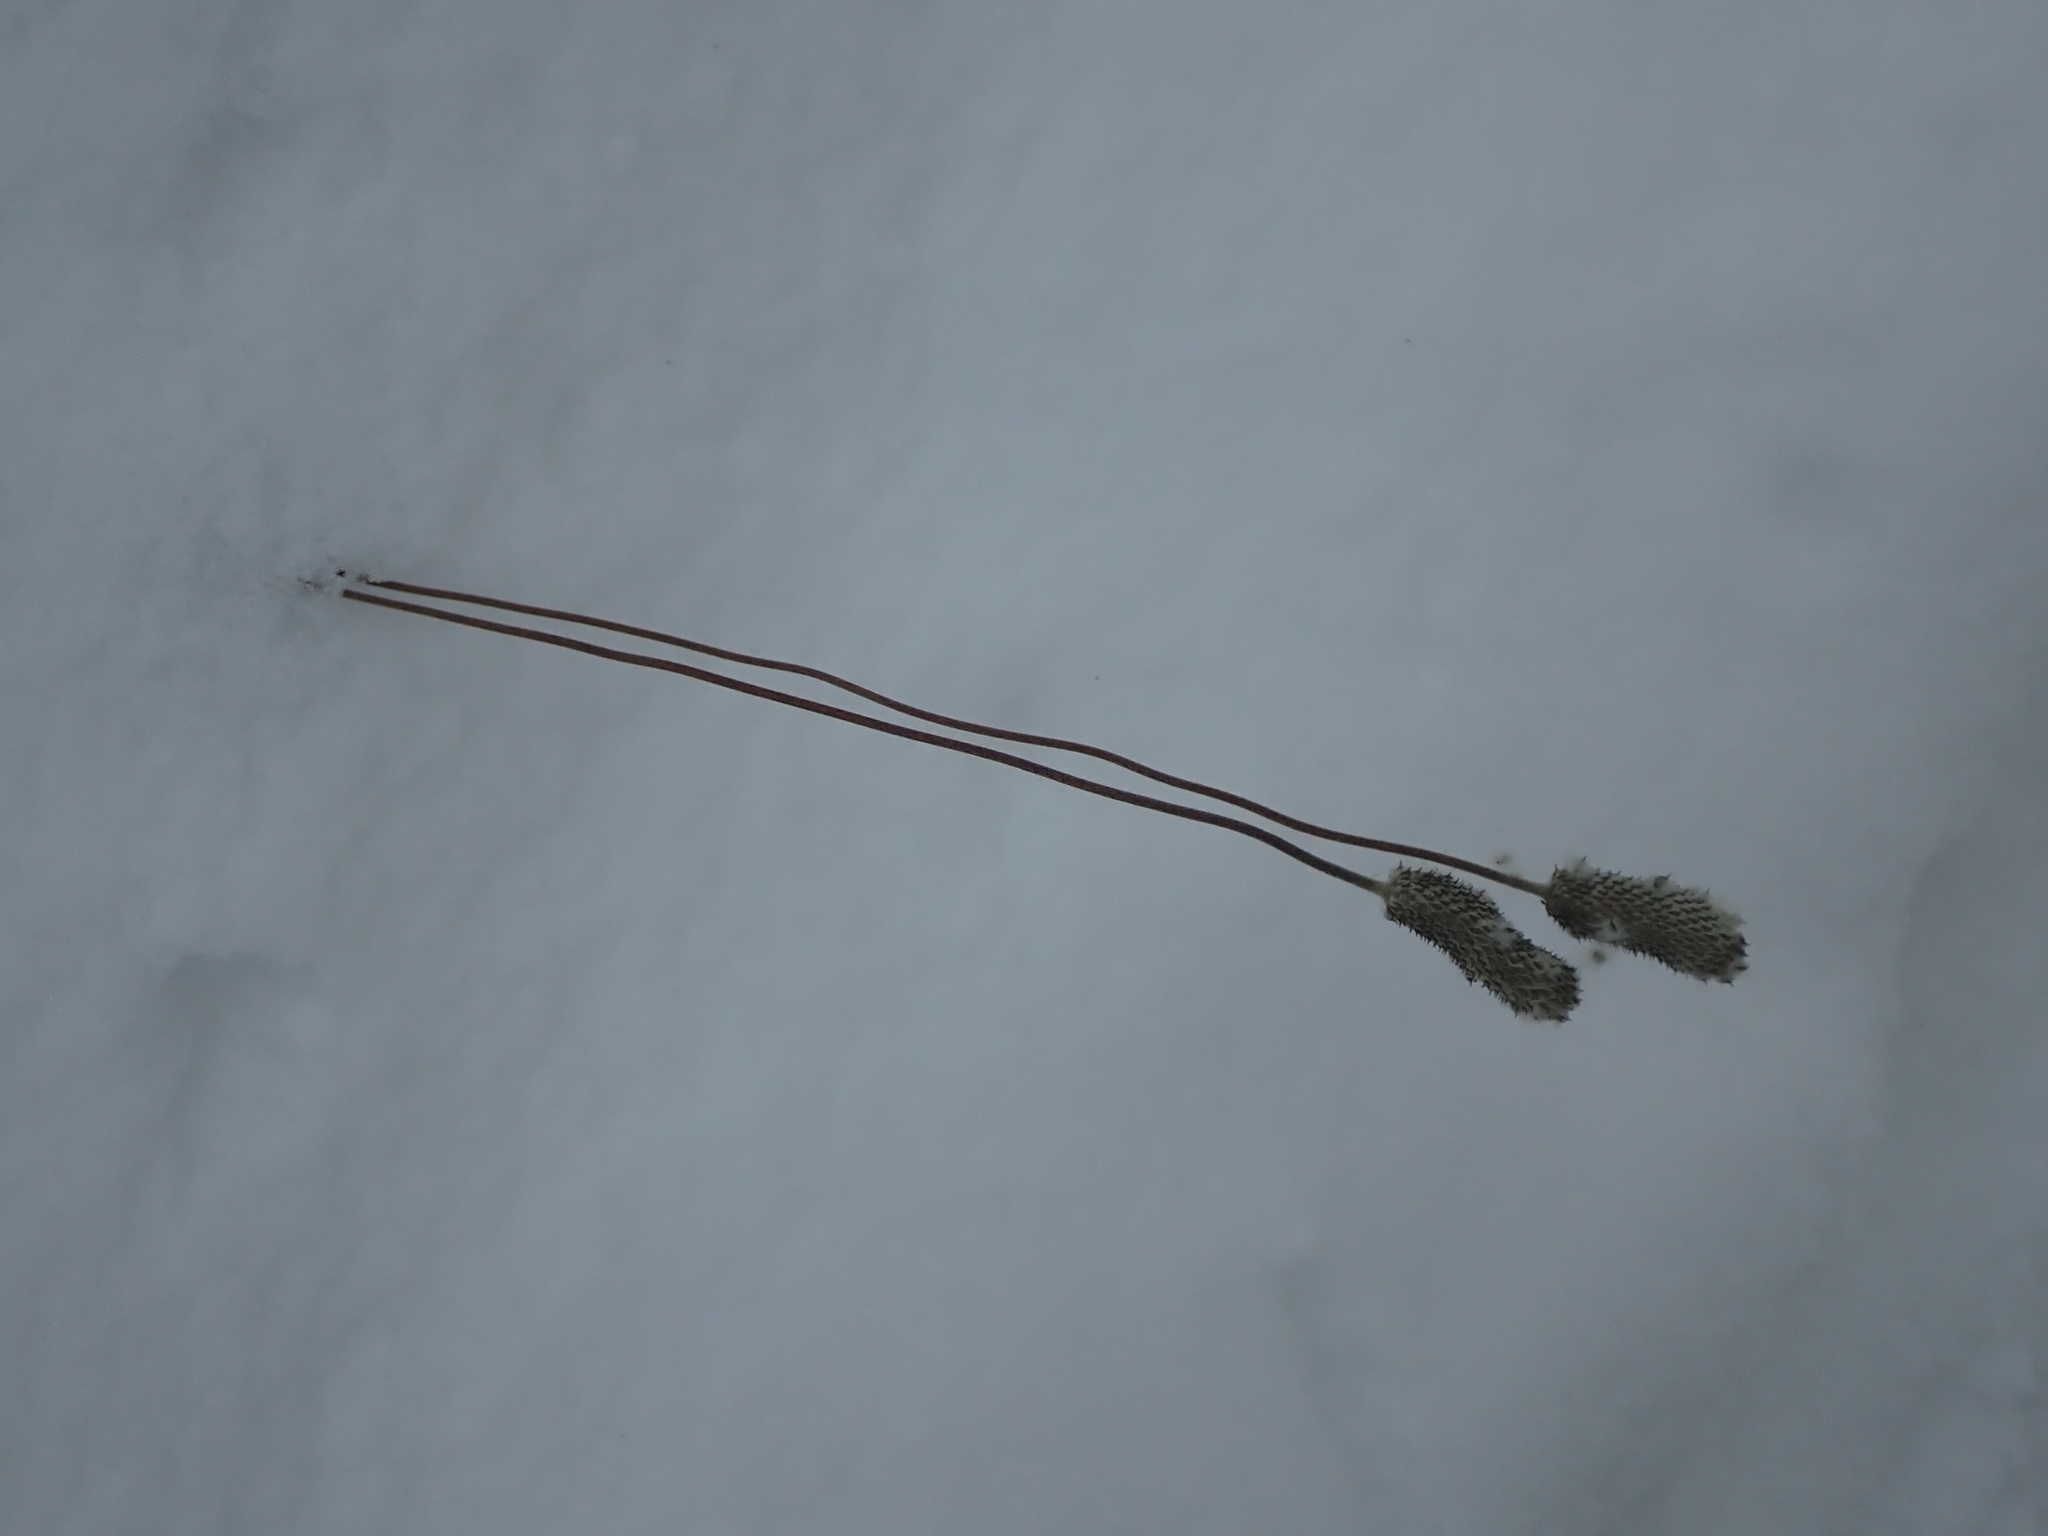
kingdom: Plantae
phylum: Tracheophyta
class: Magnoliopsida
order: Ranunculales
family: Ranunculaceae
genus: Anemone
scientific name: Anemone cylindrica
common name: Candle anemone
